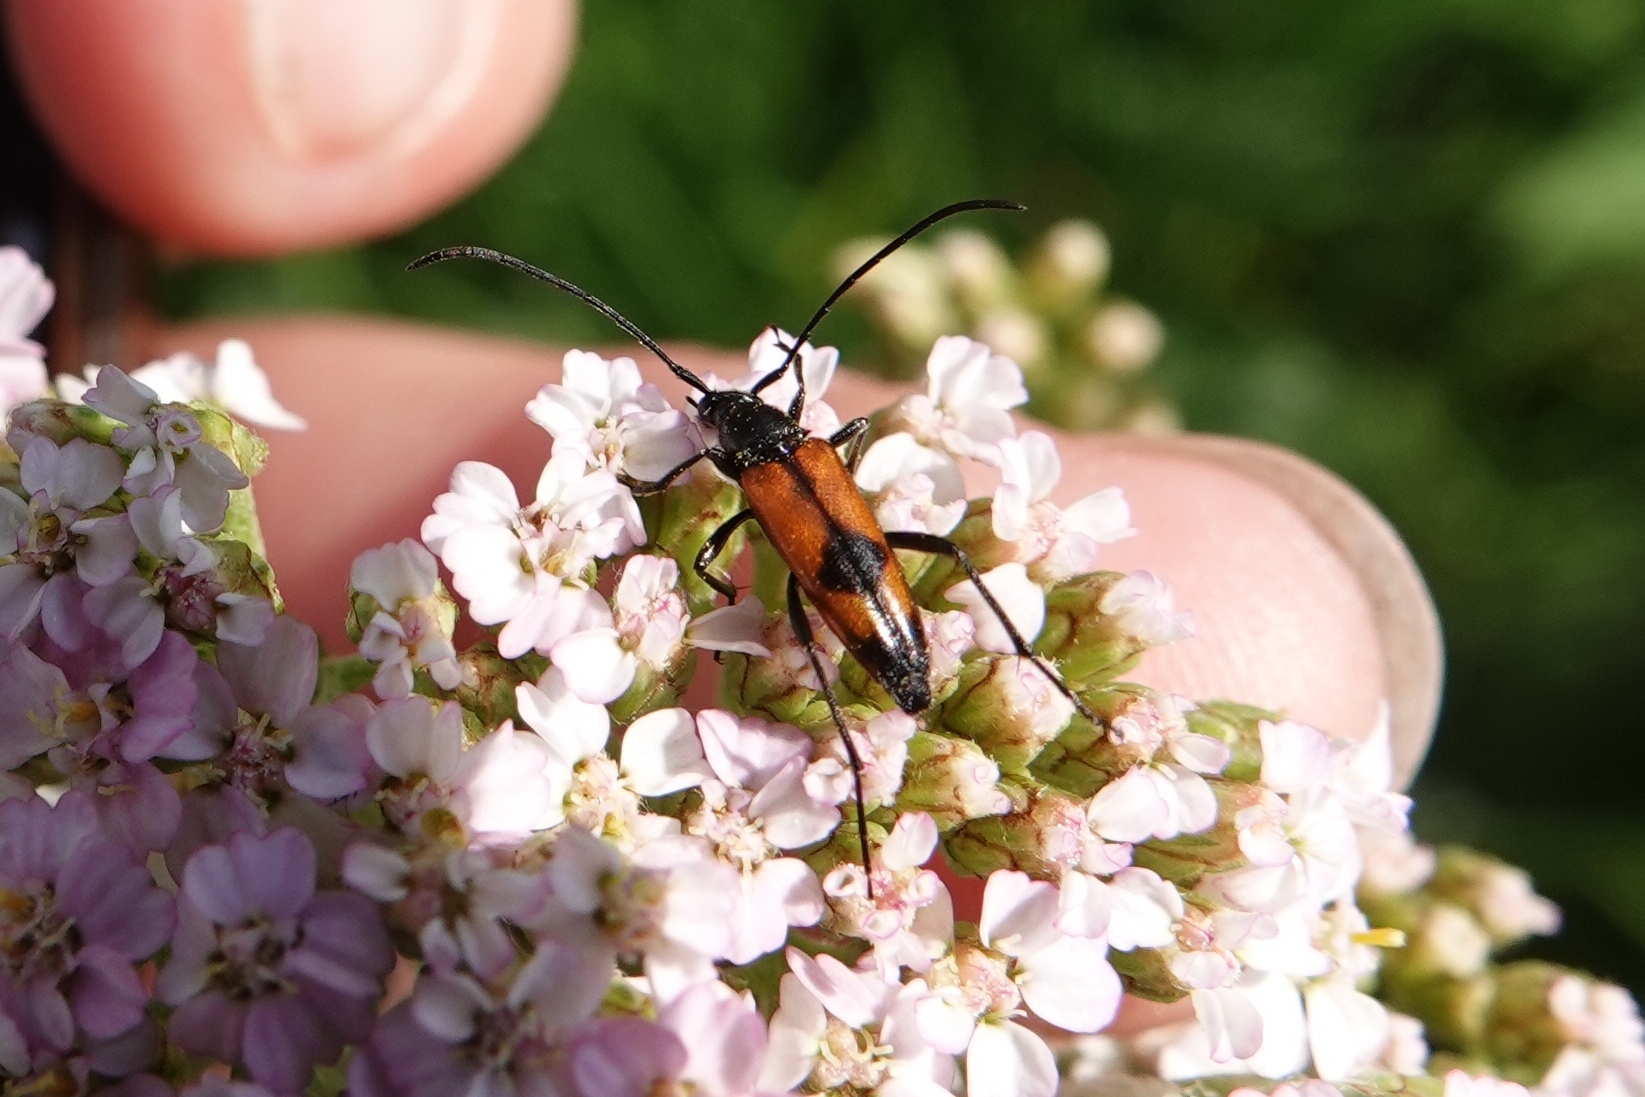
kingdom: Animalia
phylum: Arthropoda
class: Insecta
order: Coleoptera
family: Cerambycidae
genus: Stenurella
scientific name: Stenurella bifasciata
